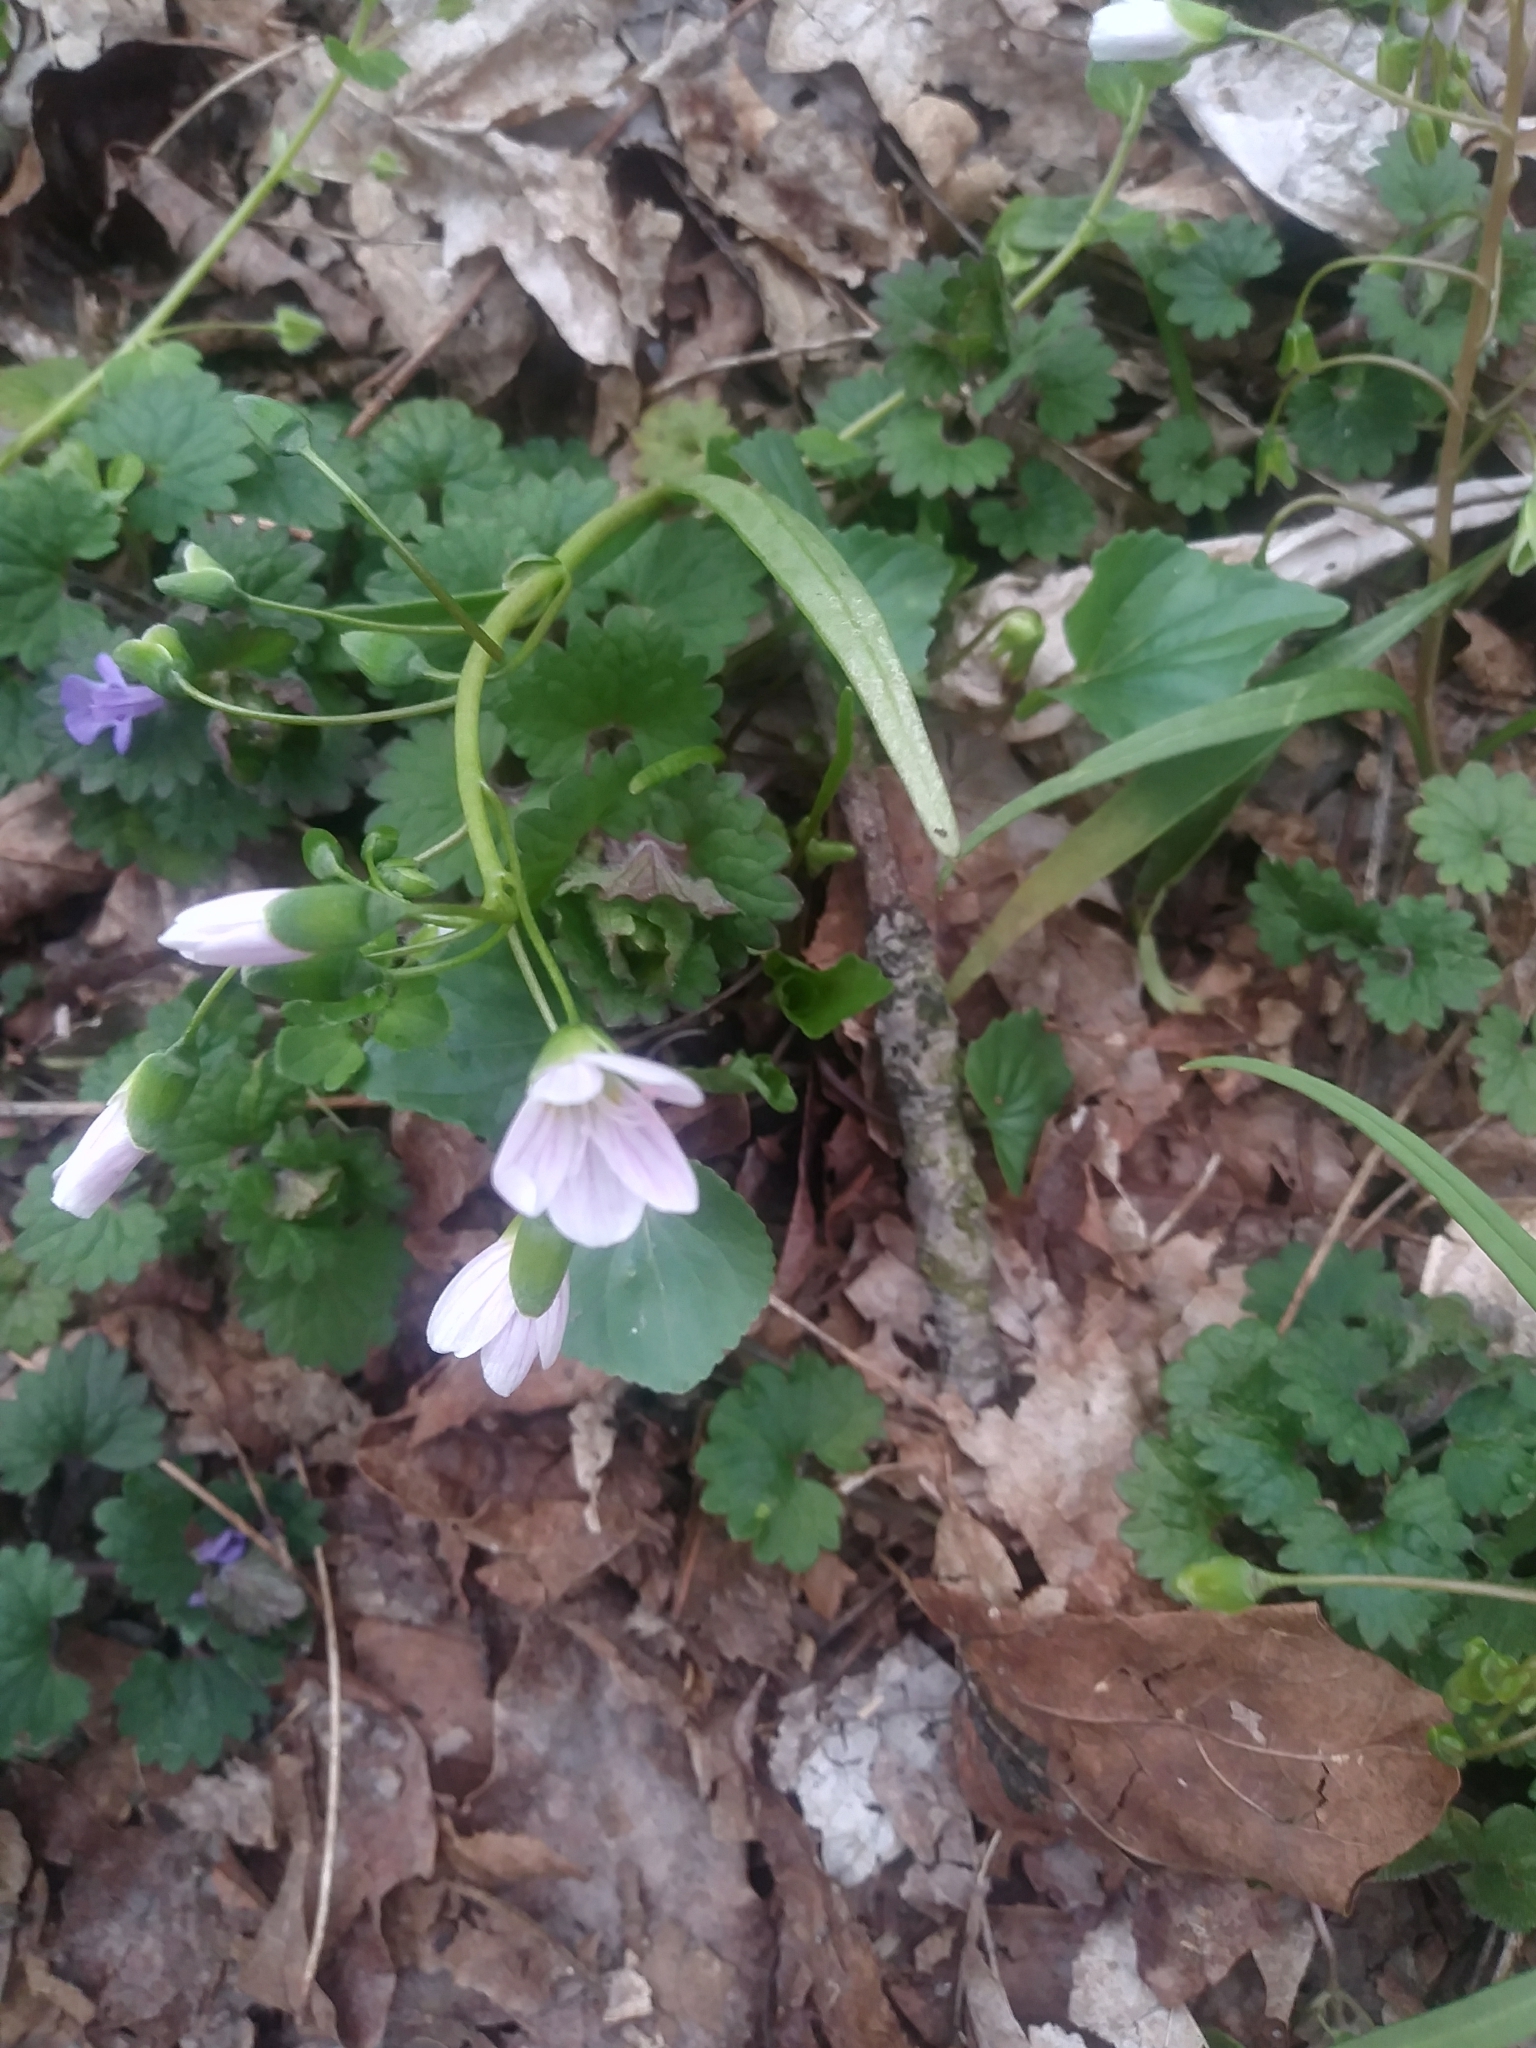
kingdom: Plantae
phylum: Tracheophyta
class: Magnoliopsida
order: Caryophyllales
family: Montiaceae
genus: Claytonia
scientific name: Claytonia virginica
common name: Virginia springbeauty
